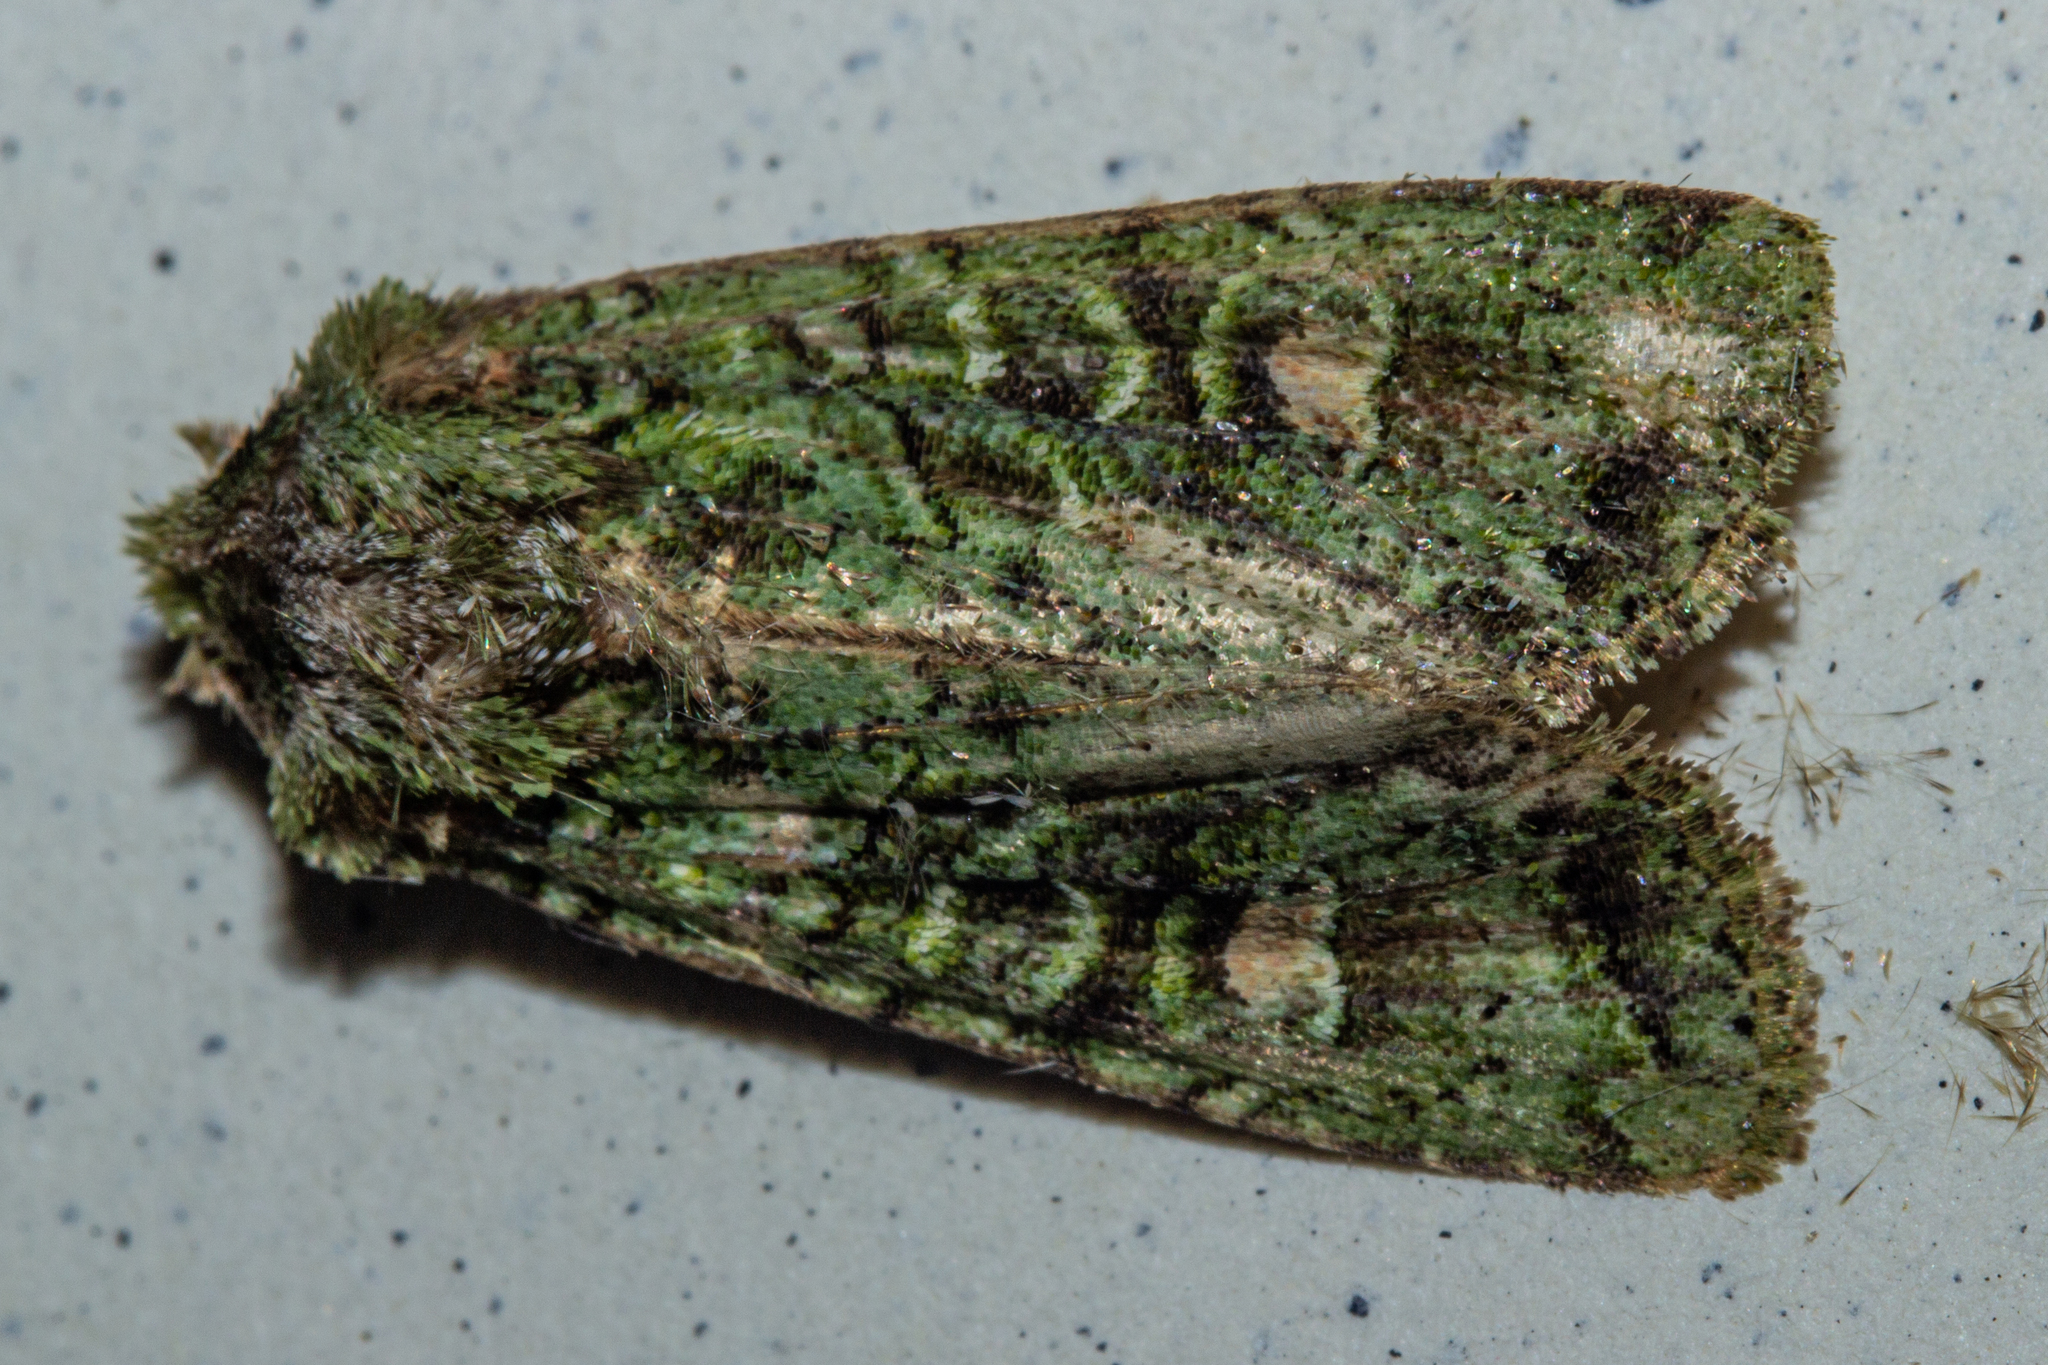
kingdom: Animalia
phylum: Arthropoda
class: Insecta
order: Lepidoptera
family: Noctuidae
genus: Ichneutica
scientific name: Ichneutica
